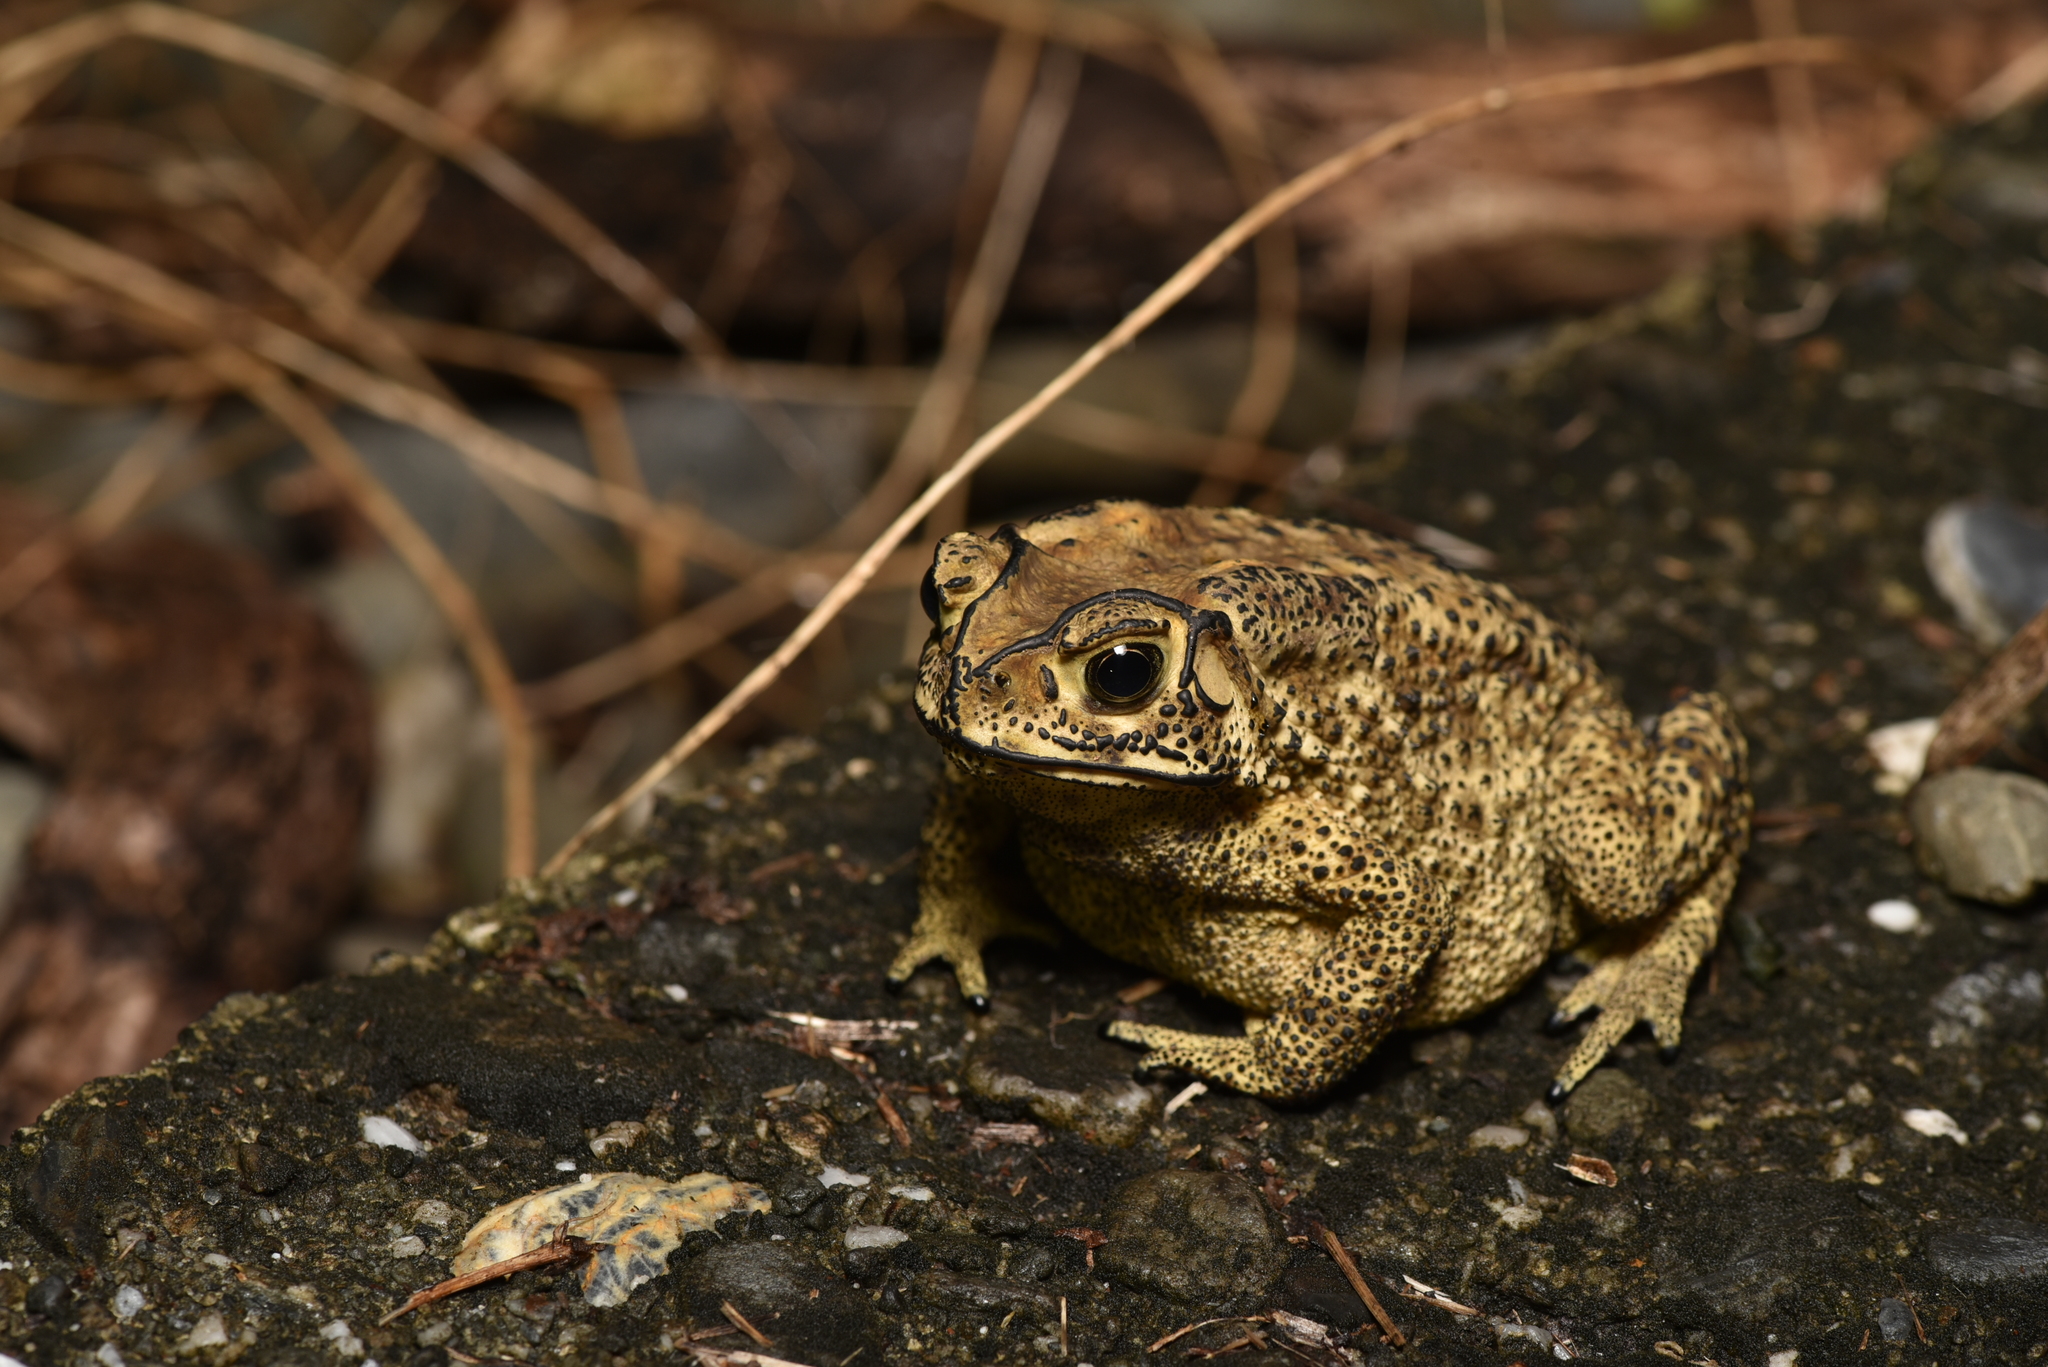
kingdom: Animalia
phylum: Chordata
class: Amphibia
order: Anura
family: Bufonidae
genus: Duttaphrynus
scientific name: Duttaphrynus melanostictus
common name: Common sunda toad
